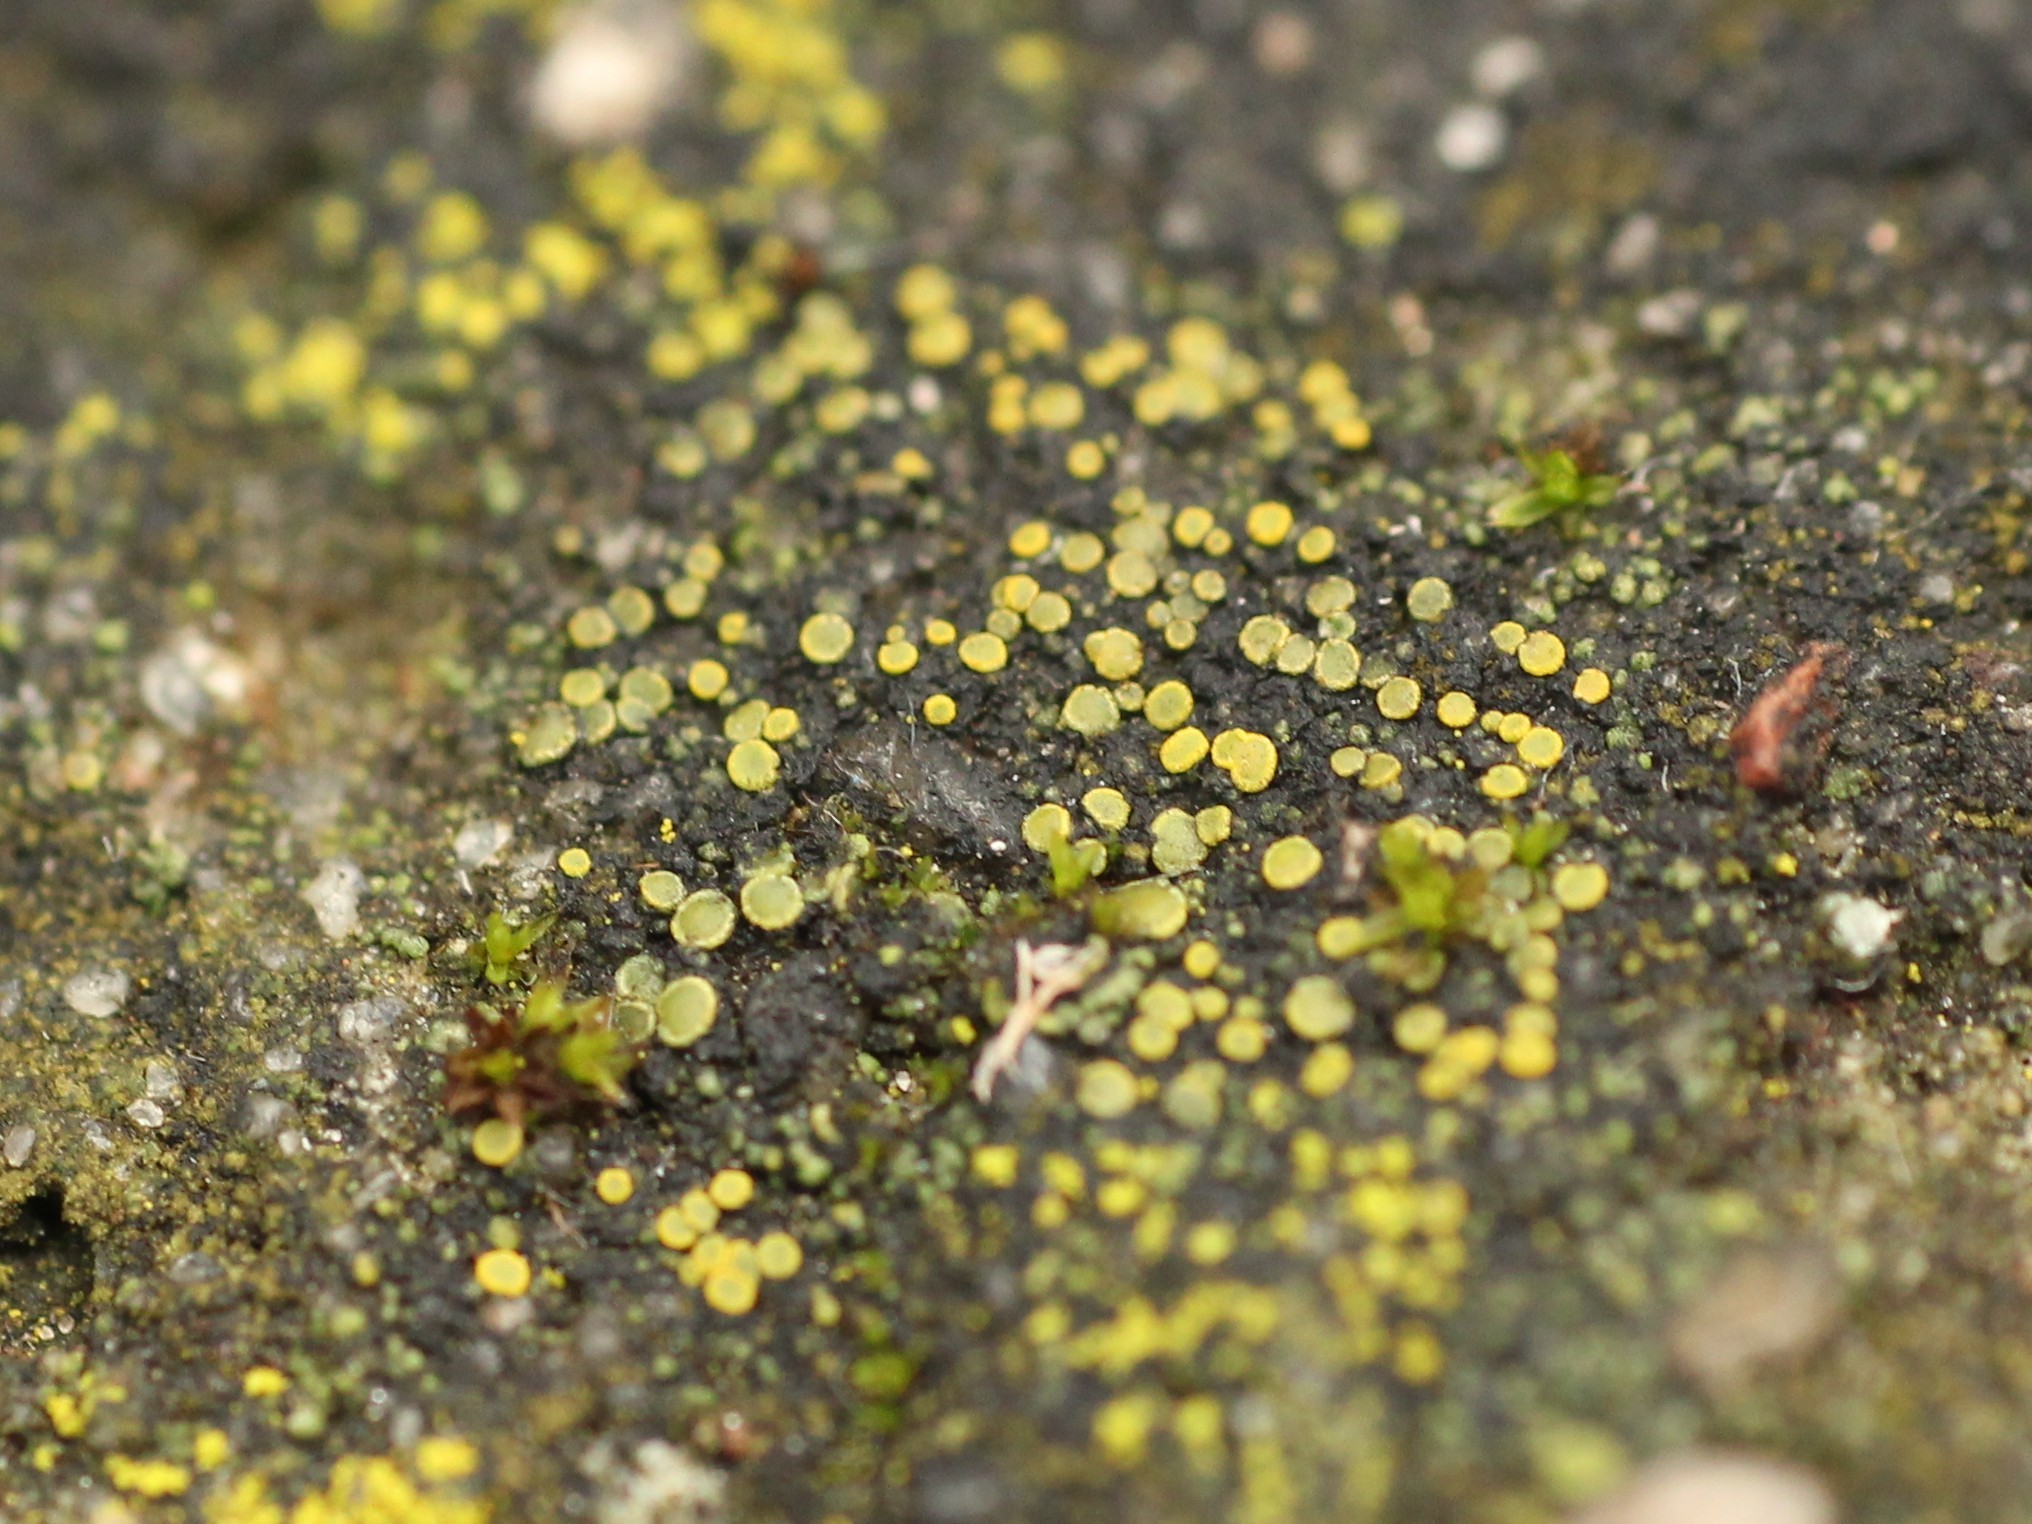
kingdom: Fungi
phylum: Ascomycota
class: Candelariomycetes
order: Candelariales
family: Candelariaceae
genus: Candelariella
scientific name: Candelariella aurella
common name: Hidden goldspeck lichen
